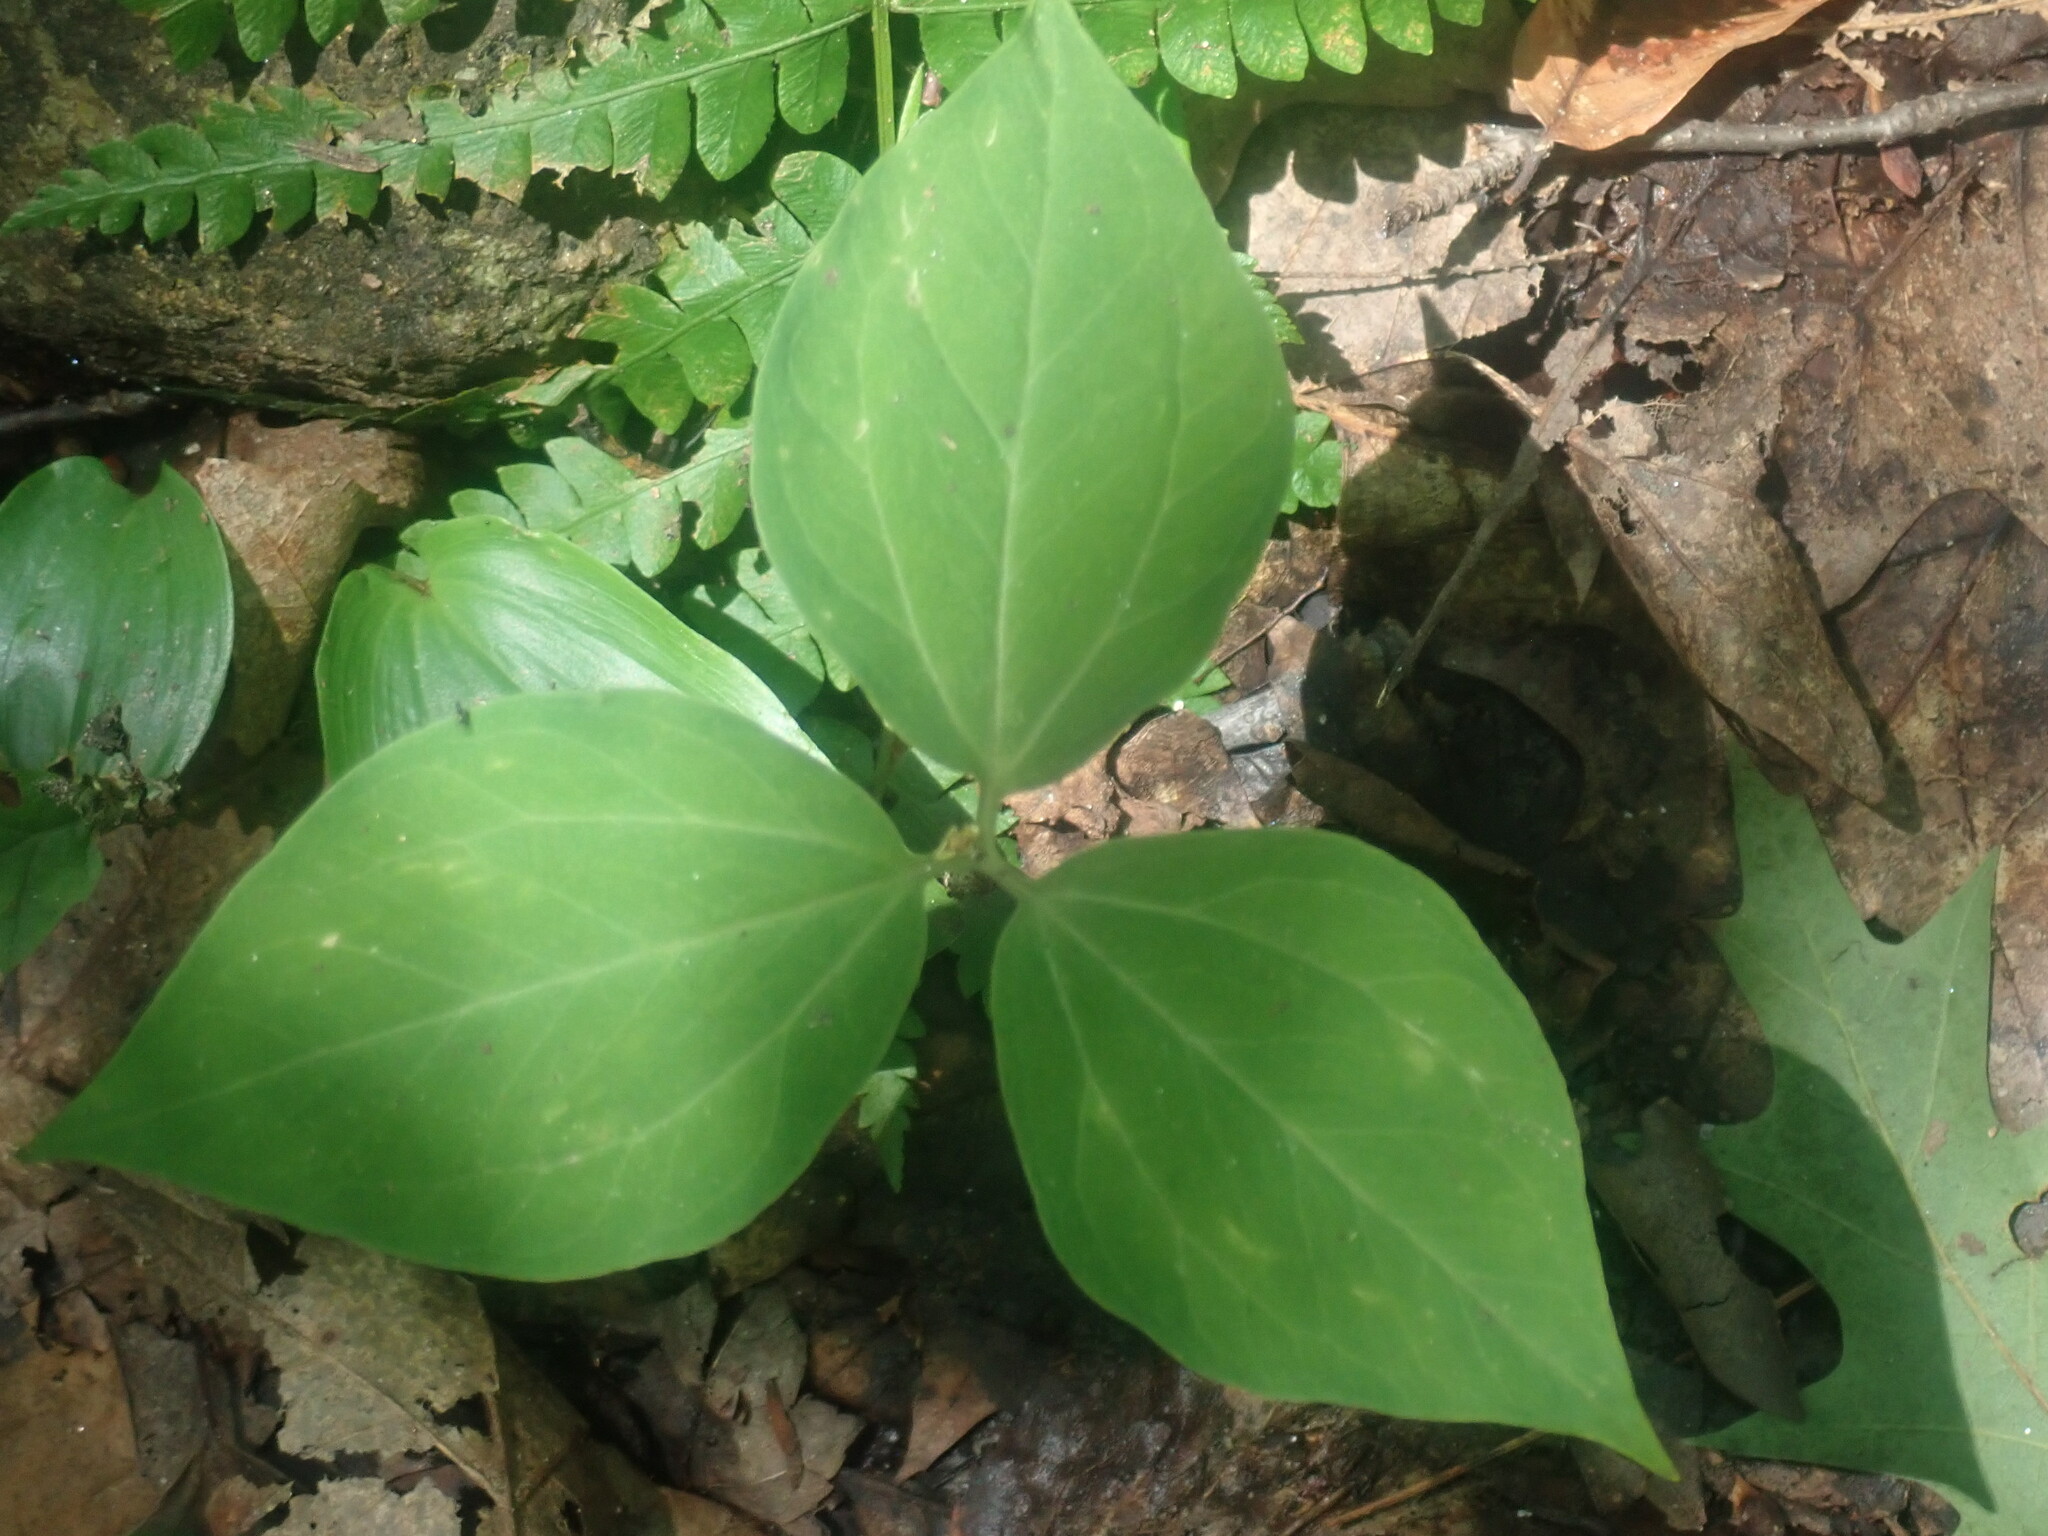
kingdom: Plantae
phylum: Tracheophyta
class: Liliopsida
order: Liliales
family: Melanthiaceae
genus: Trillium
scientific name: Trillium undulatum
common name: Paint trillium
